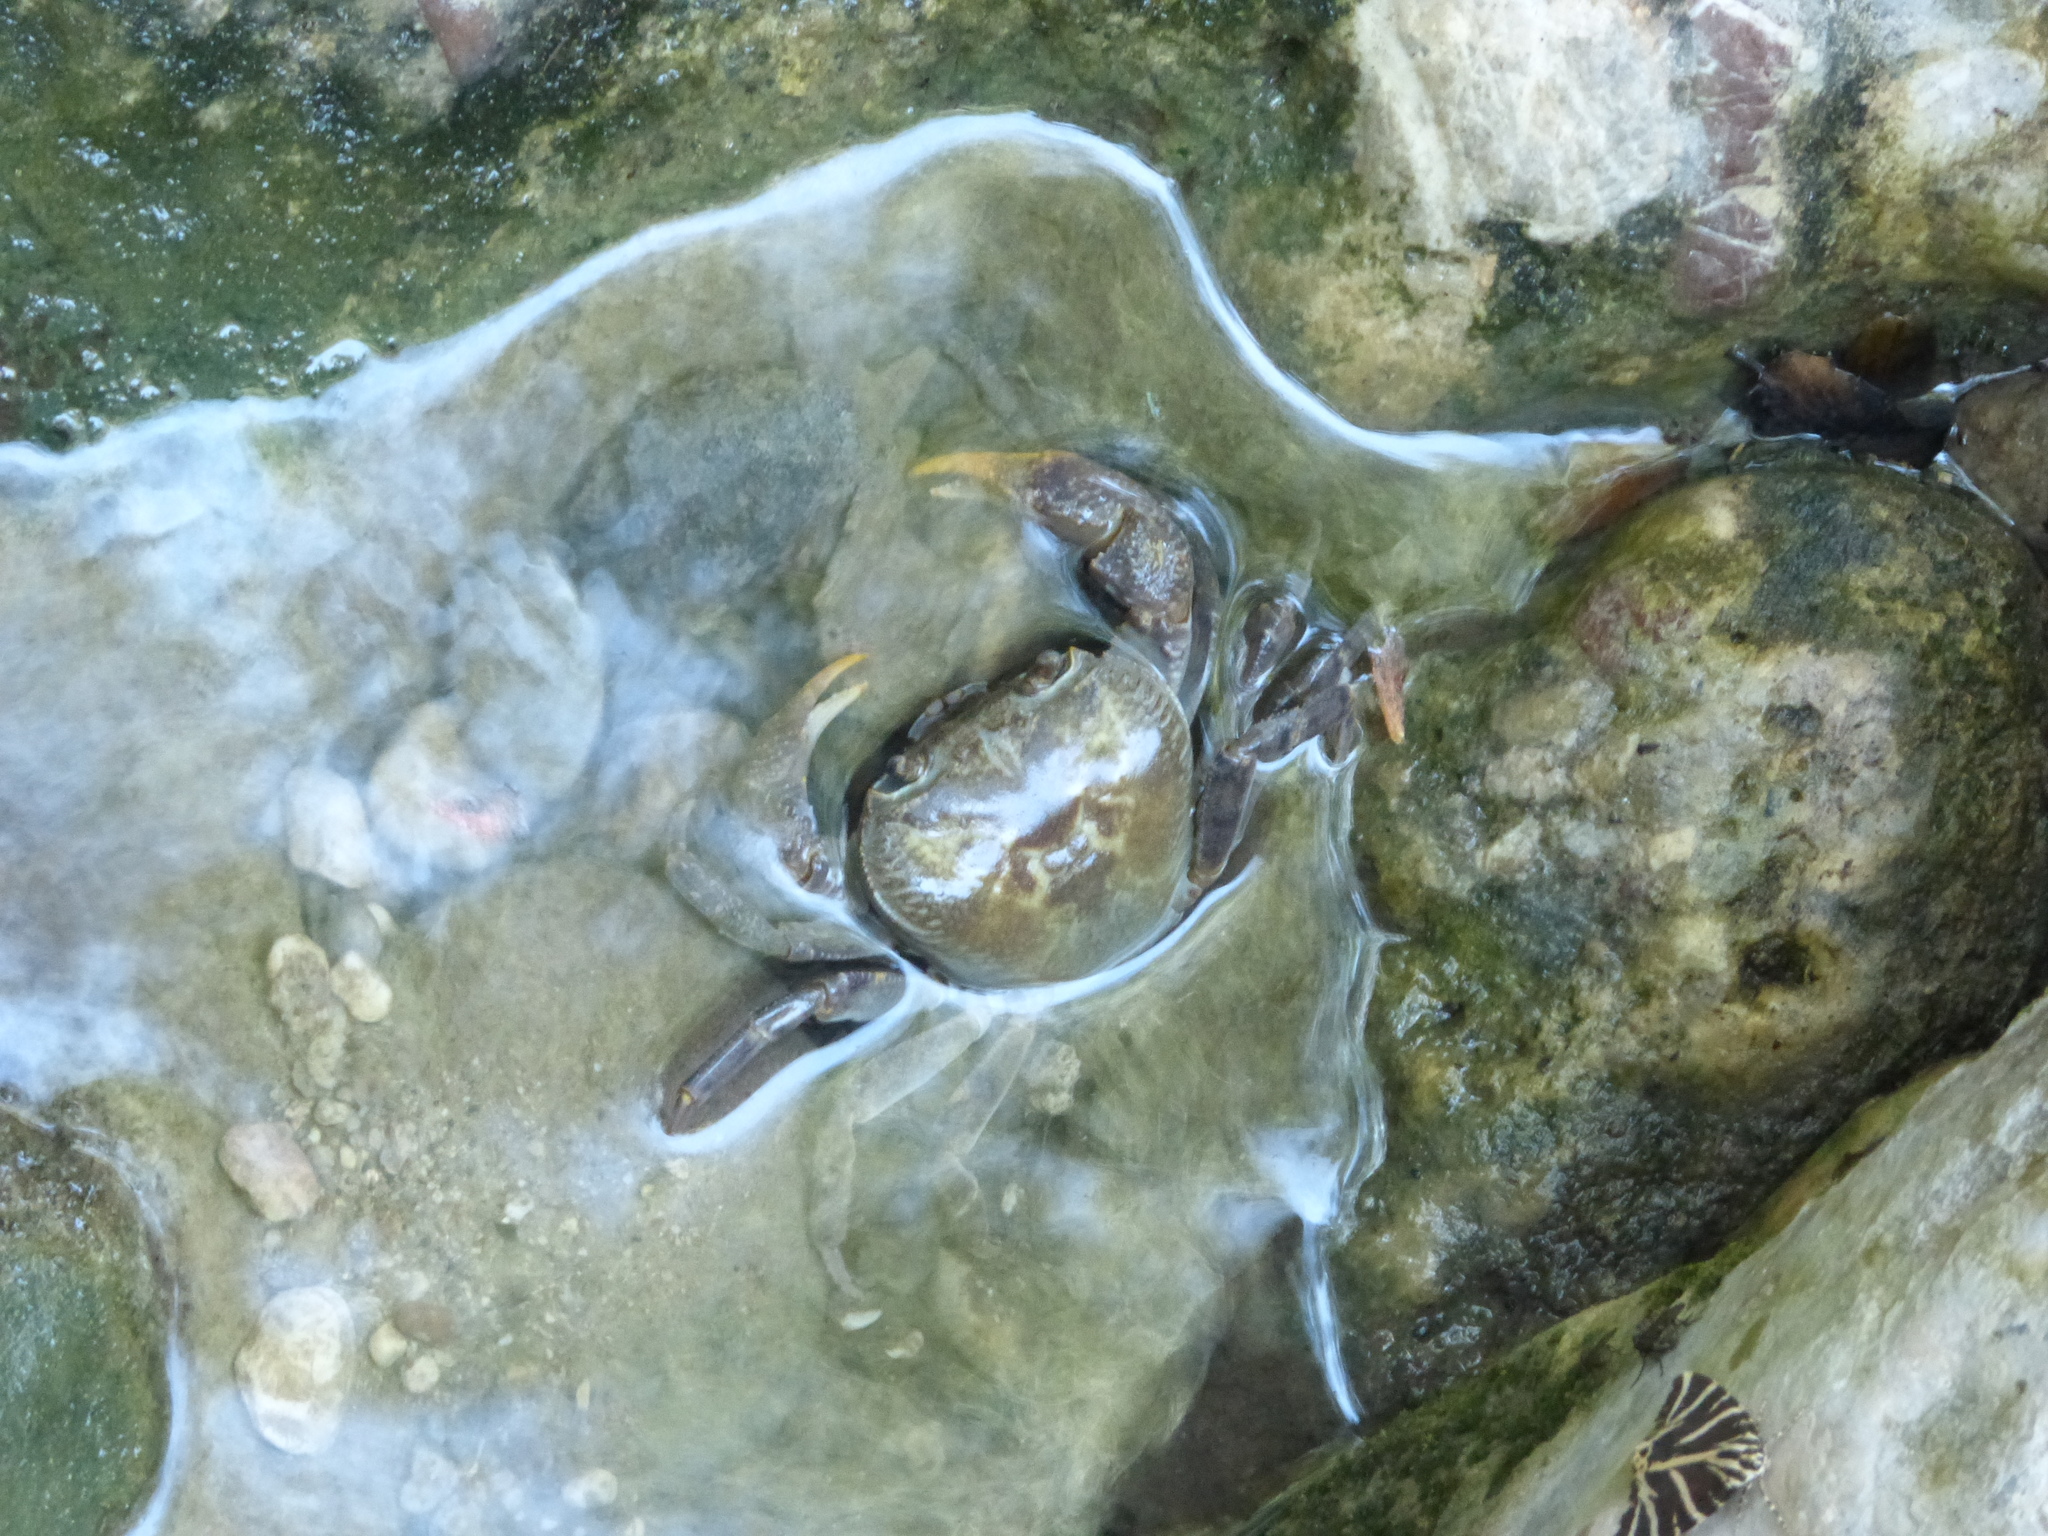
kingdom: Animalia
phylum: Arthropoda
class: Malacostraca
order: Decapoda
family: Potamidae
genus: Potamon
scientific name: Potamon rhodium
